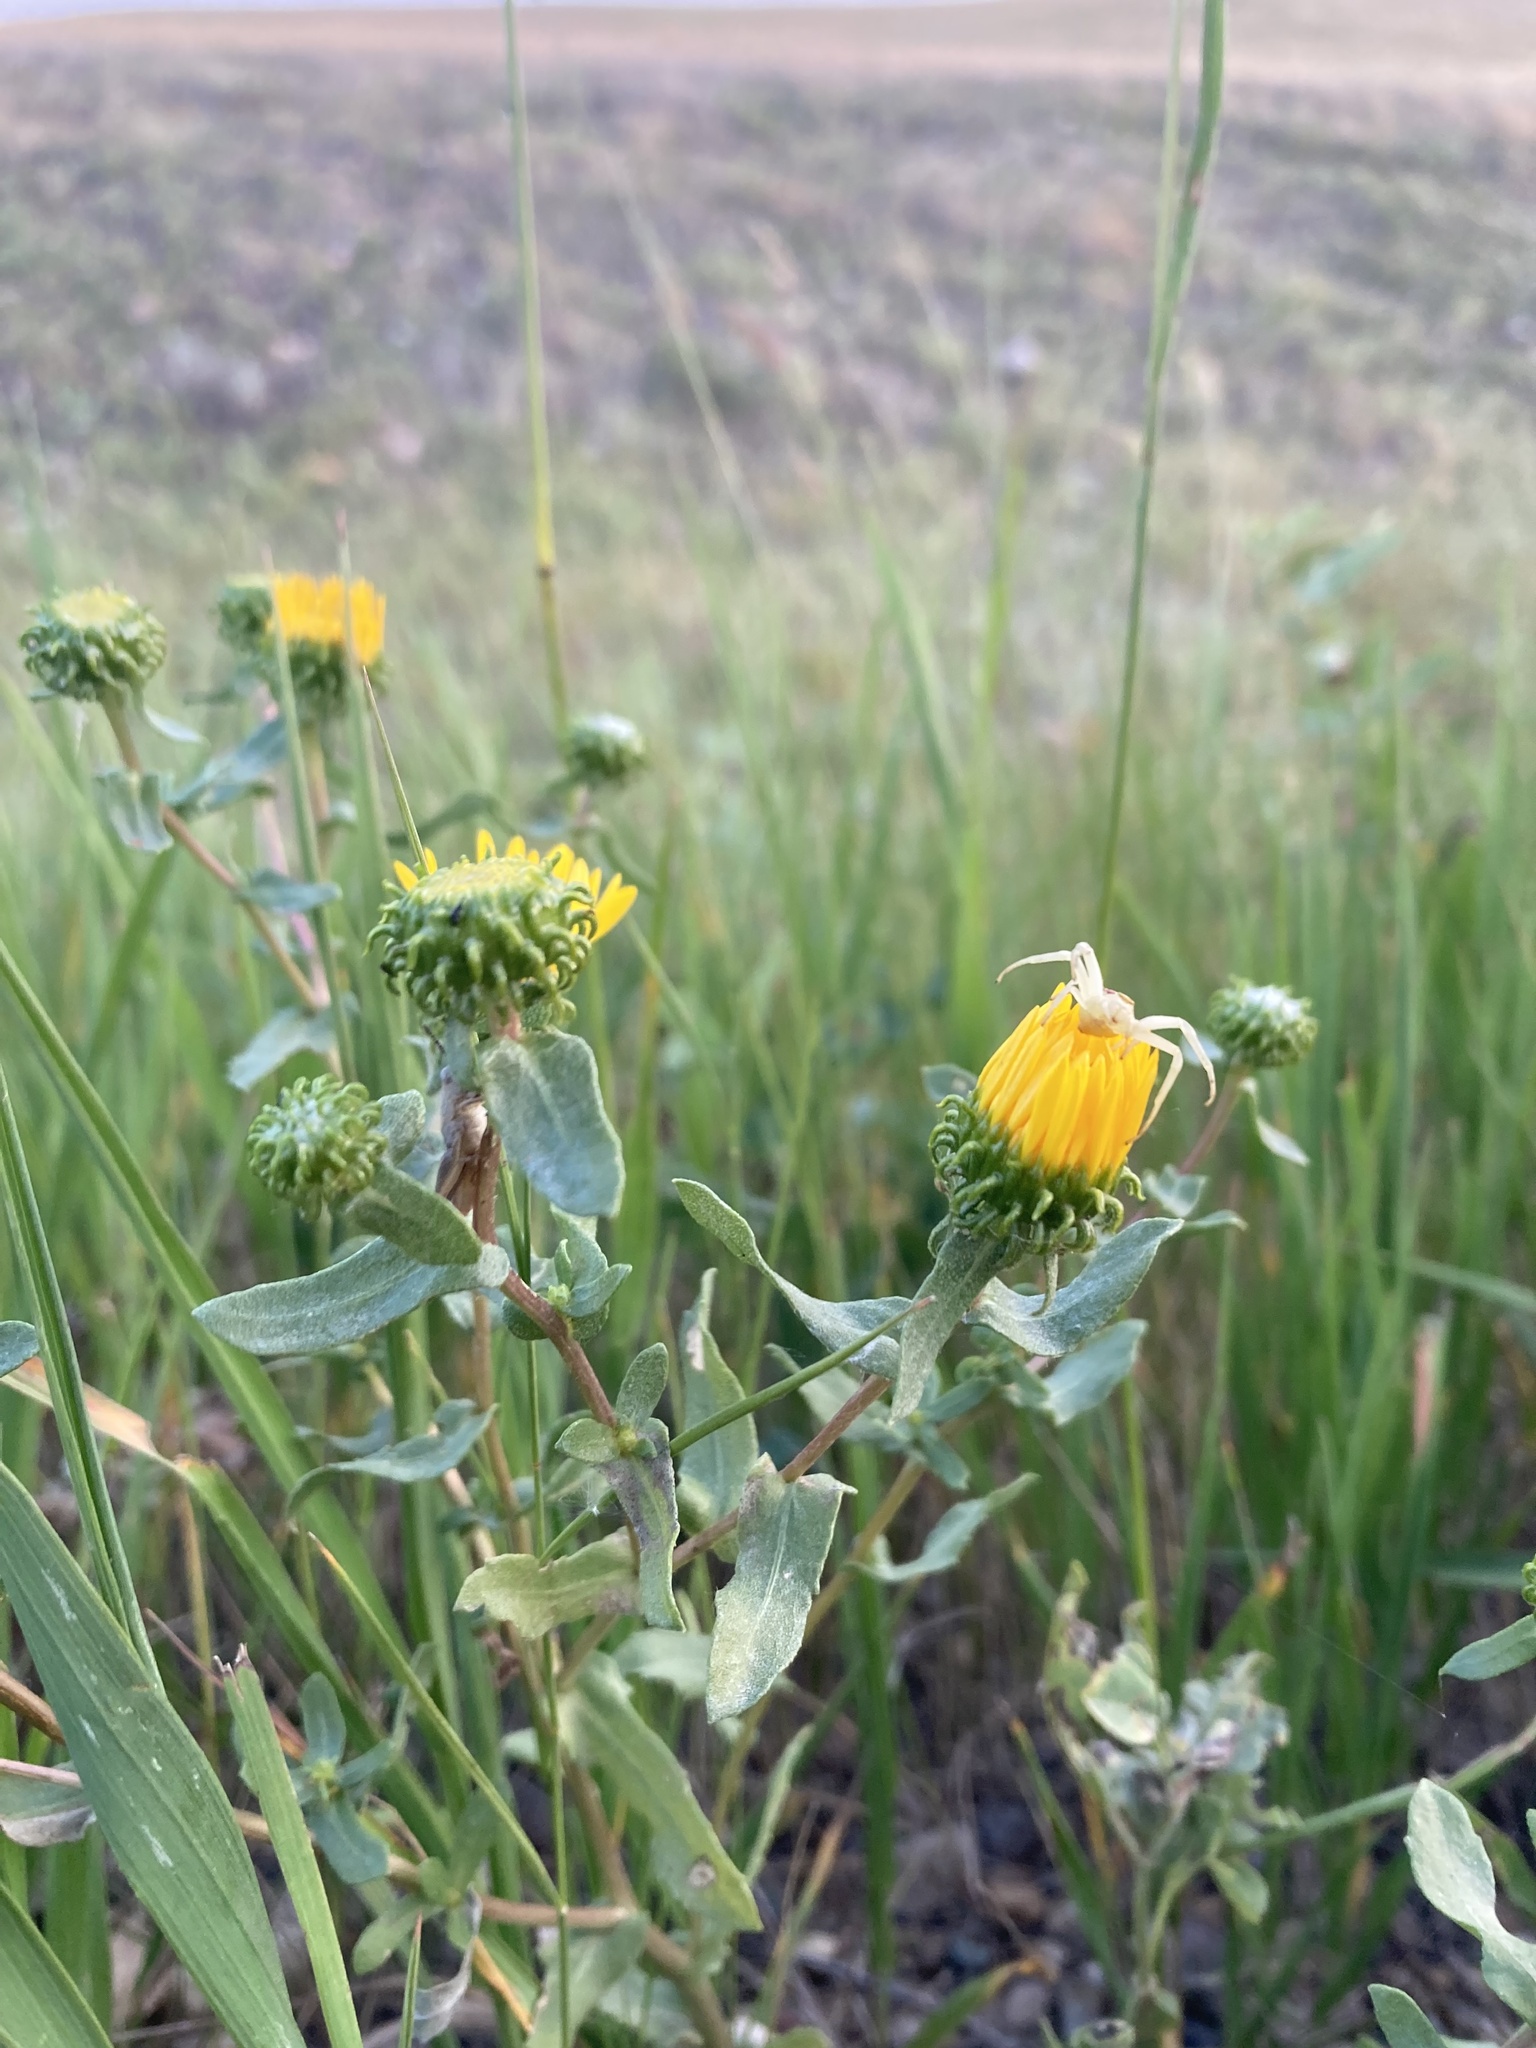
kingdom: Plantae
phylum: Tracheophyta
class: Magnoliopsida
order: Asterales
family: Asteraceae
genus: Grindelia
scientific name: Grindelia squarrosa
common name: Curly-cup gumweed
